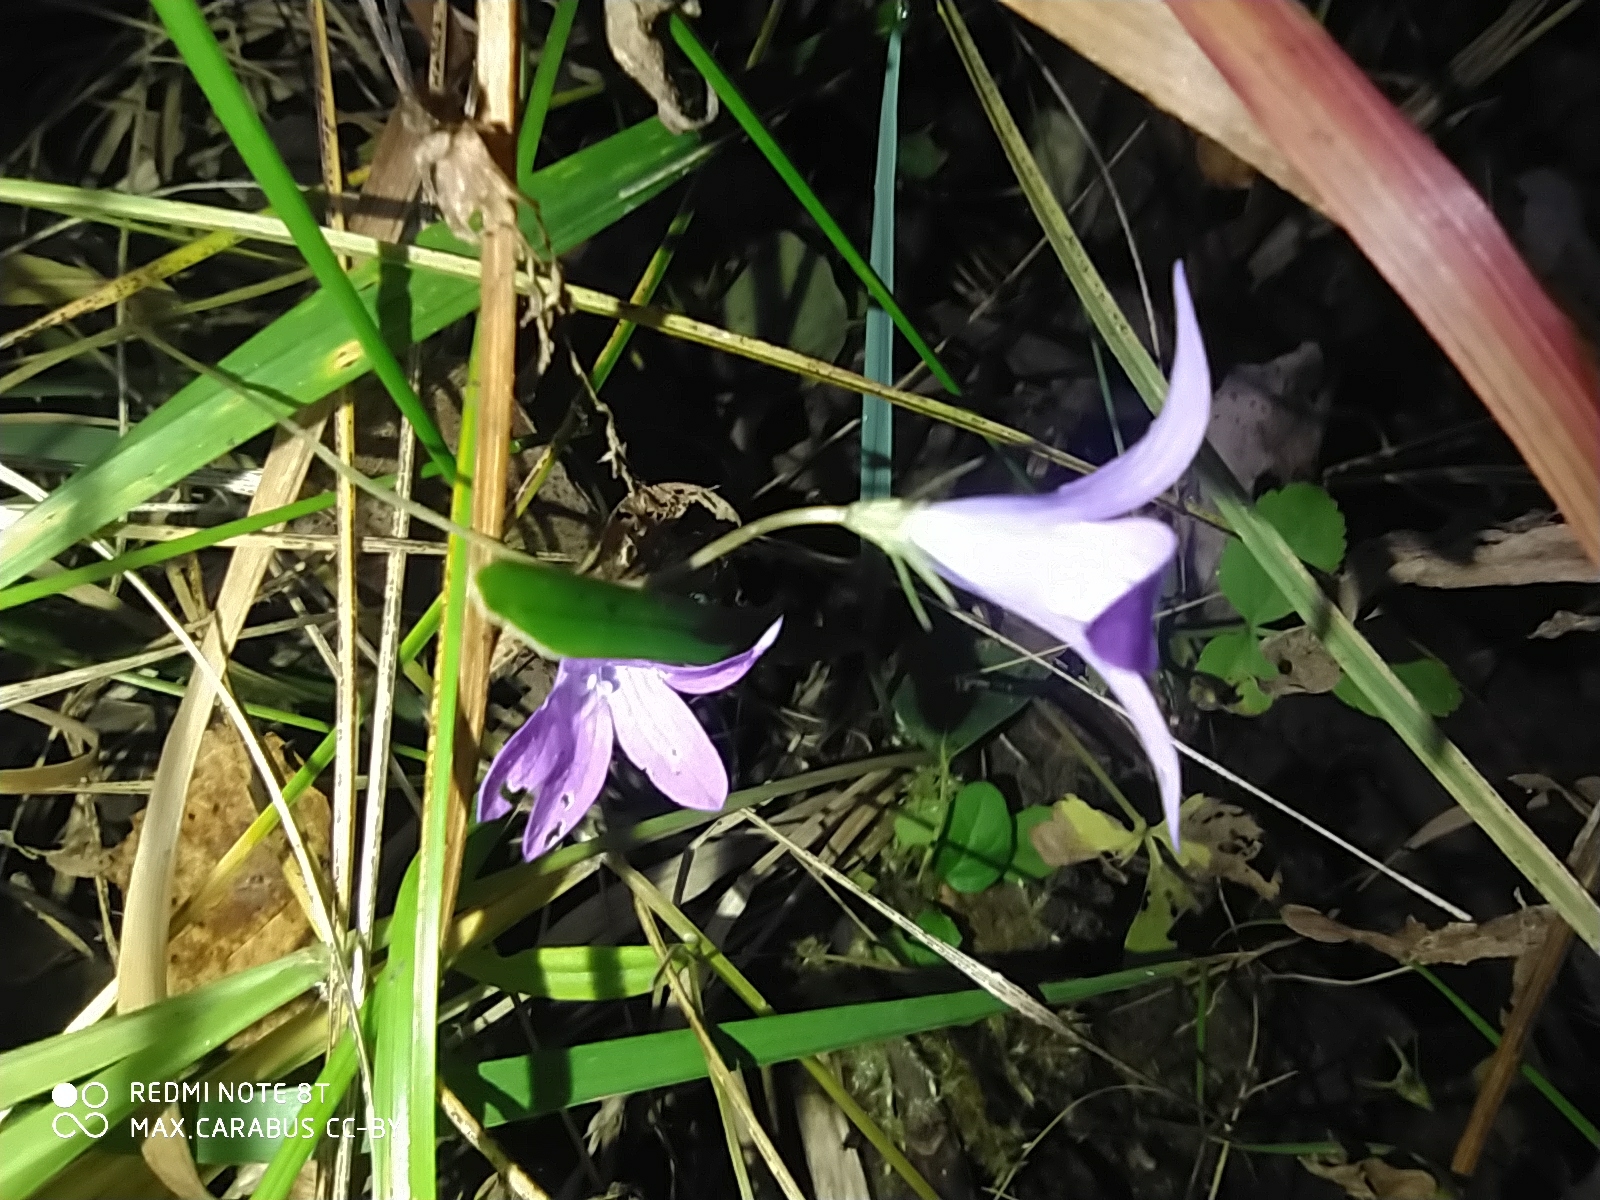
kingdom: Plantae
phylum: Tracheophyta
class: Magnoliopsida
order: Asterales
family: Campanulaceae
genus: Campanula
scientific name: Campanula patula
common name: Spreading bellflower
